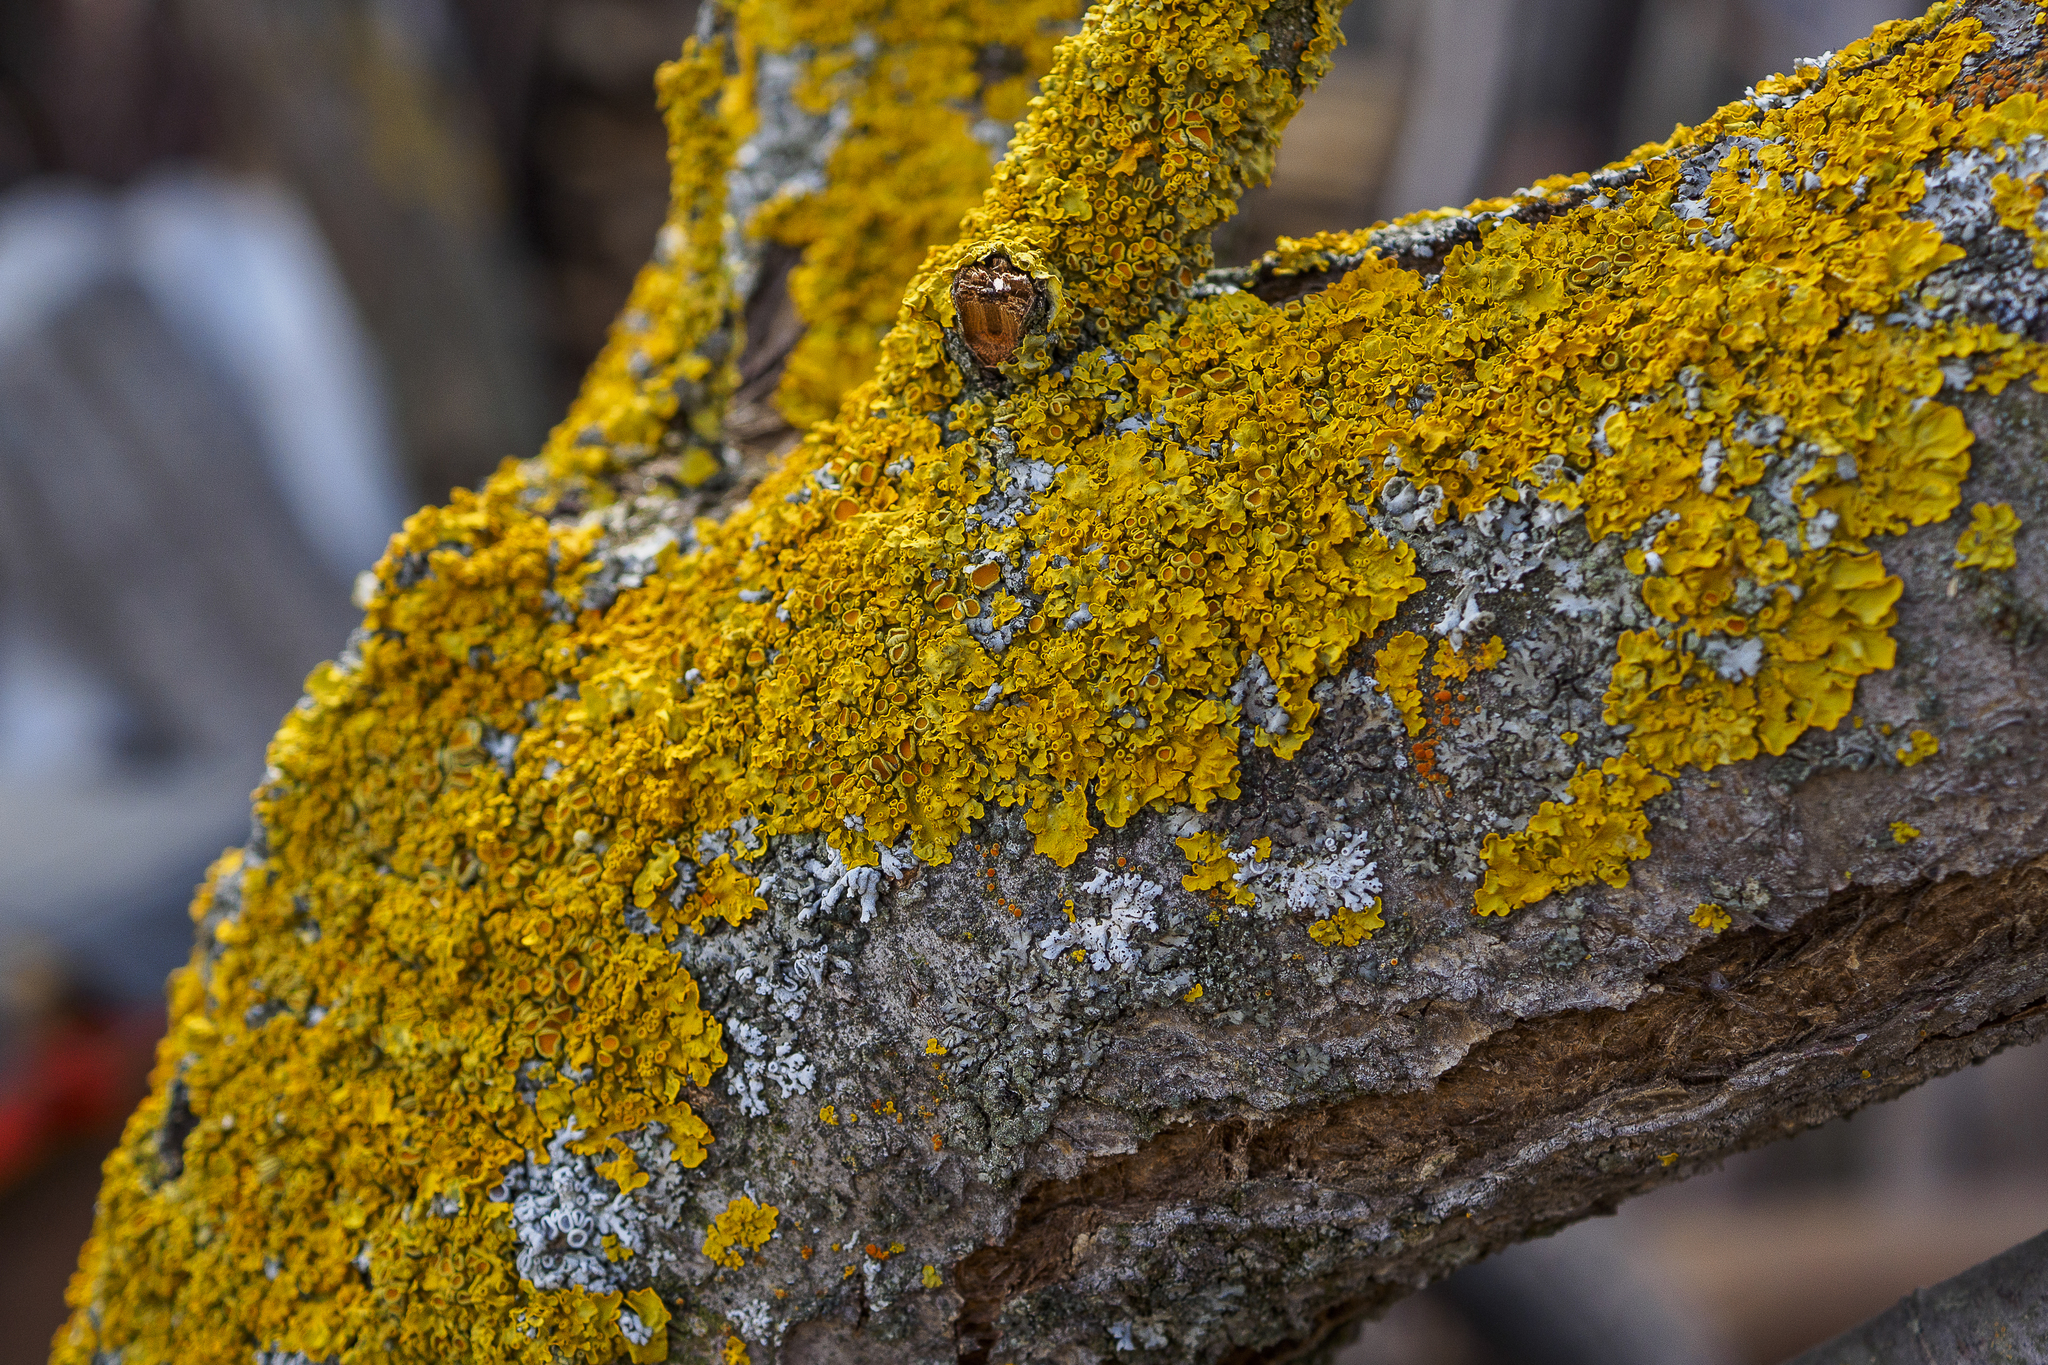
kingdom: Fungi
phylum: Ascomycota
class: Lecanoromycetes
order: Teloschistales
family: Teloschistaceae
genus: Xanthoria
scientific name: Xanthoria parietina
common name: Common orange lichen
